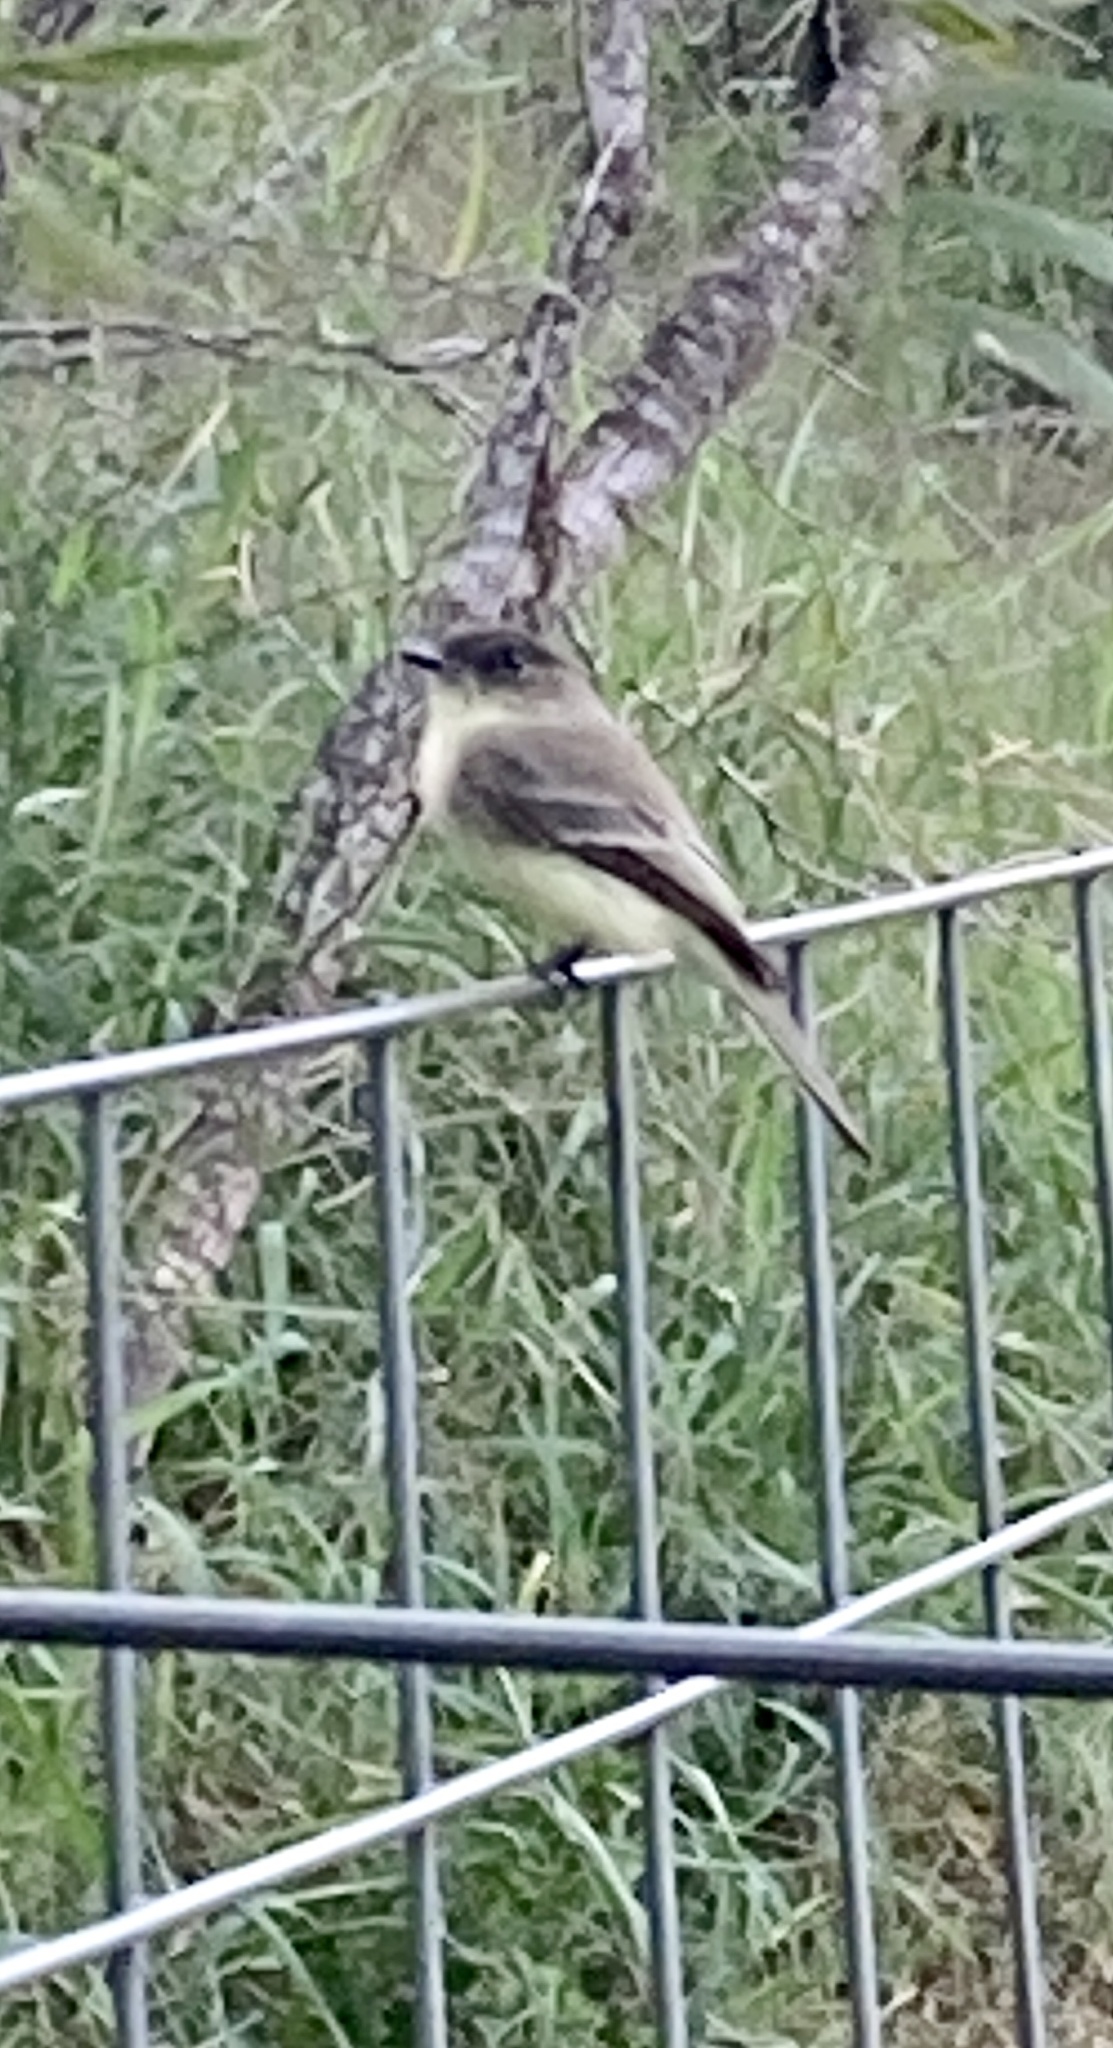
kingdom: Animalia
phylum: Chordata
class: Aves
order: Passeriformes
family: Tyrannidae
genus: Sayornis
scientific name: Sayornis phoebe
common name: Eastern phoebe
